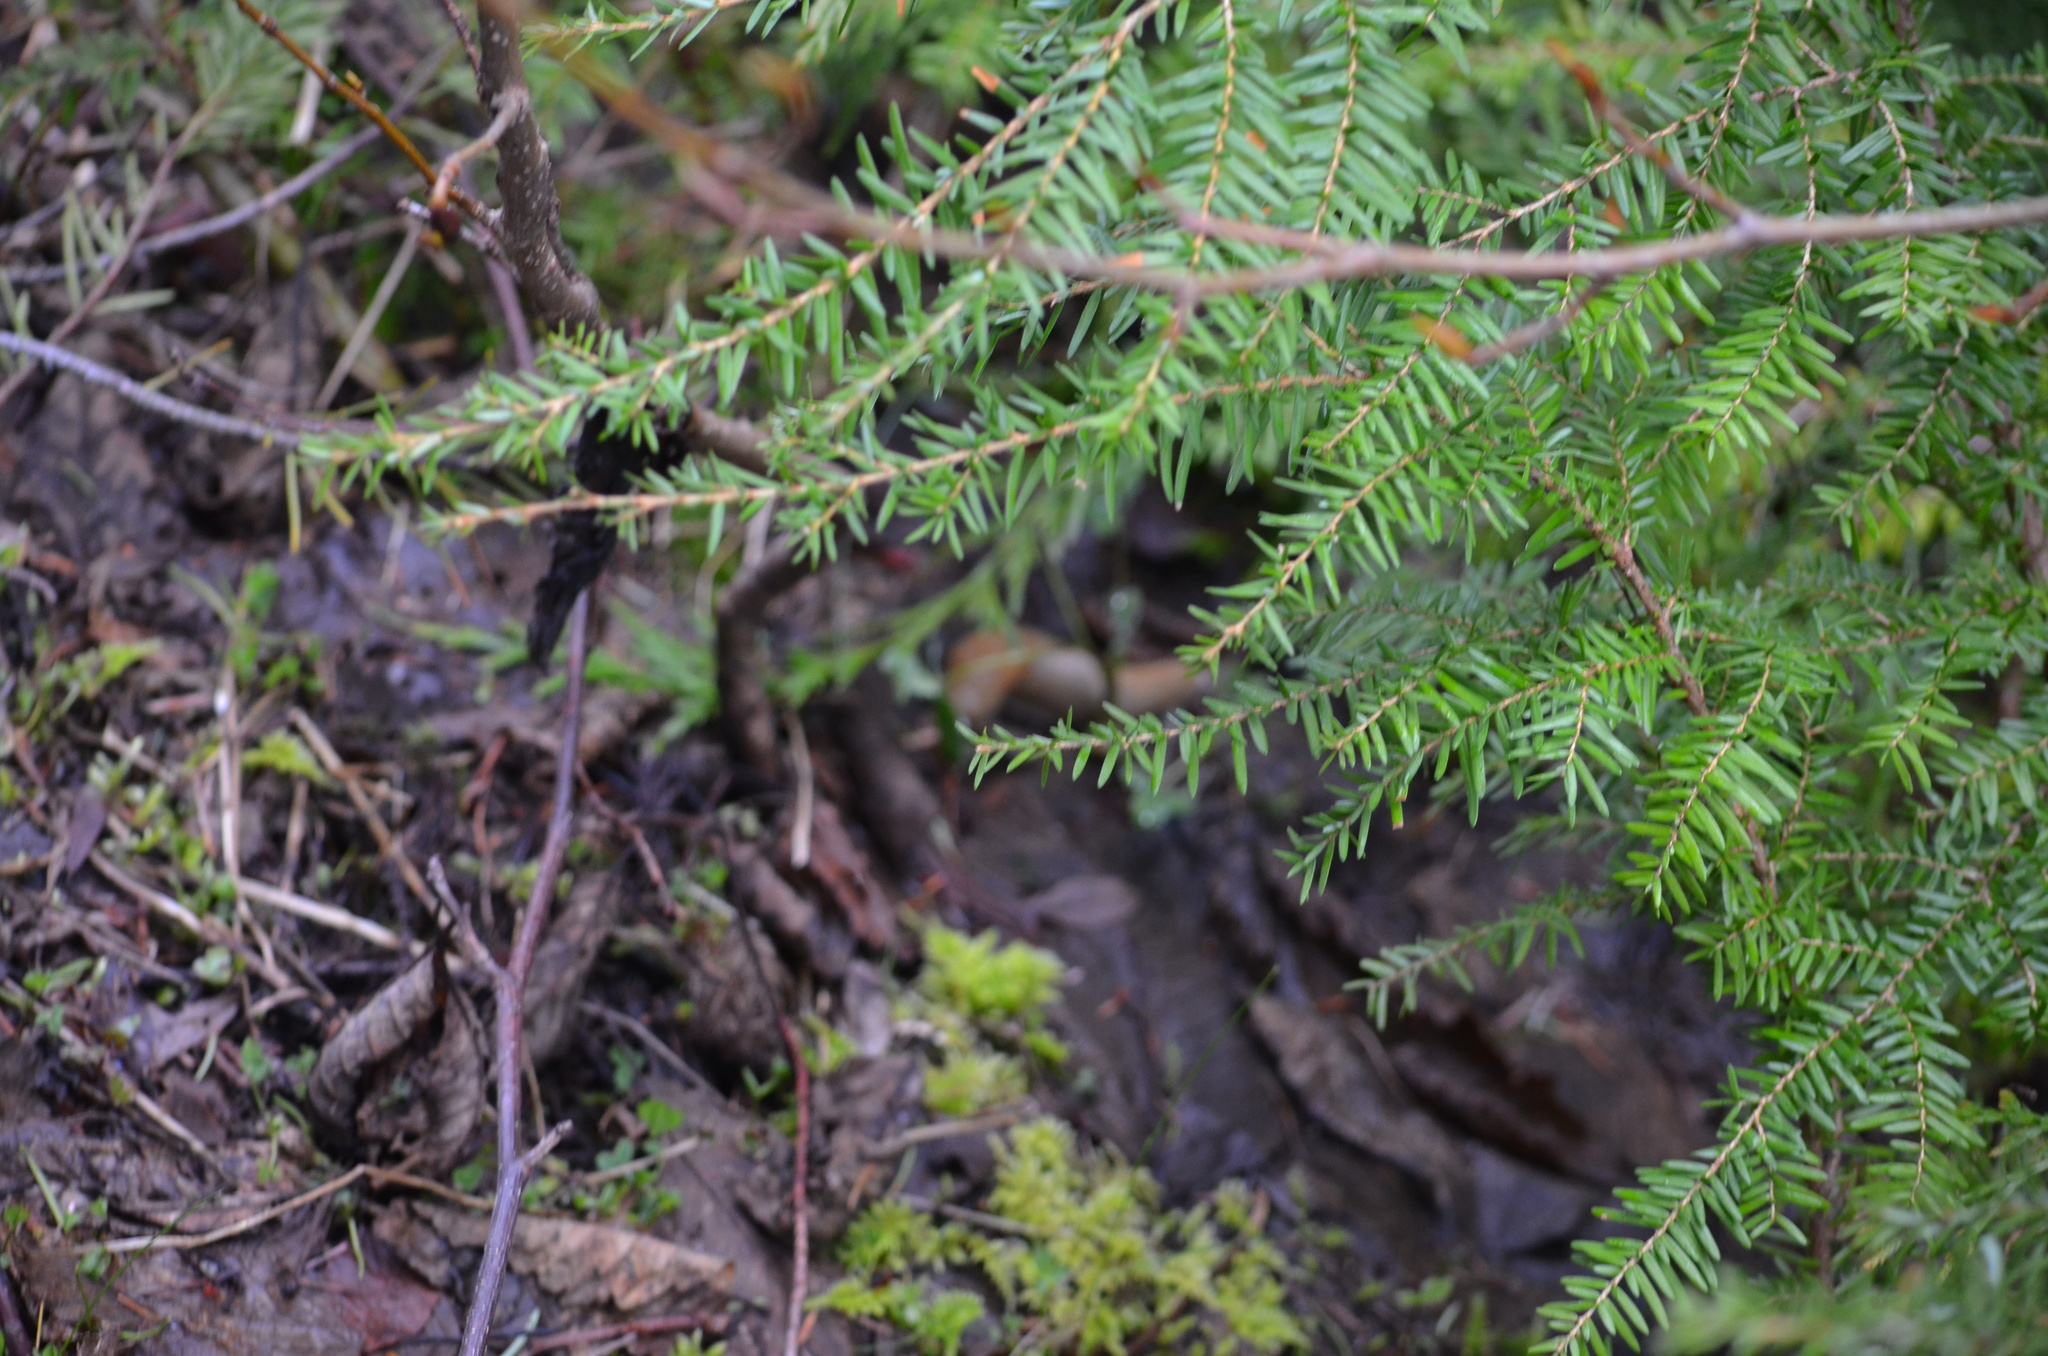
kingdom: Animalia
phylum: Mollusca
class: Gastropoda
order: Stylommatophora
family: Ariolimacidae
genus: Ariolimax
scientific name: Ariolimax columbianus
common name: Pacific banana slug
